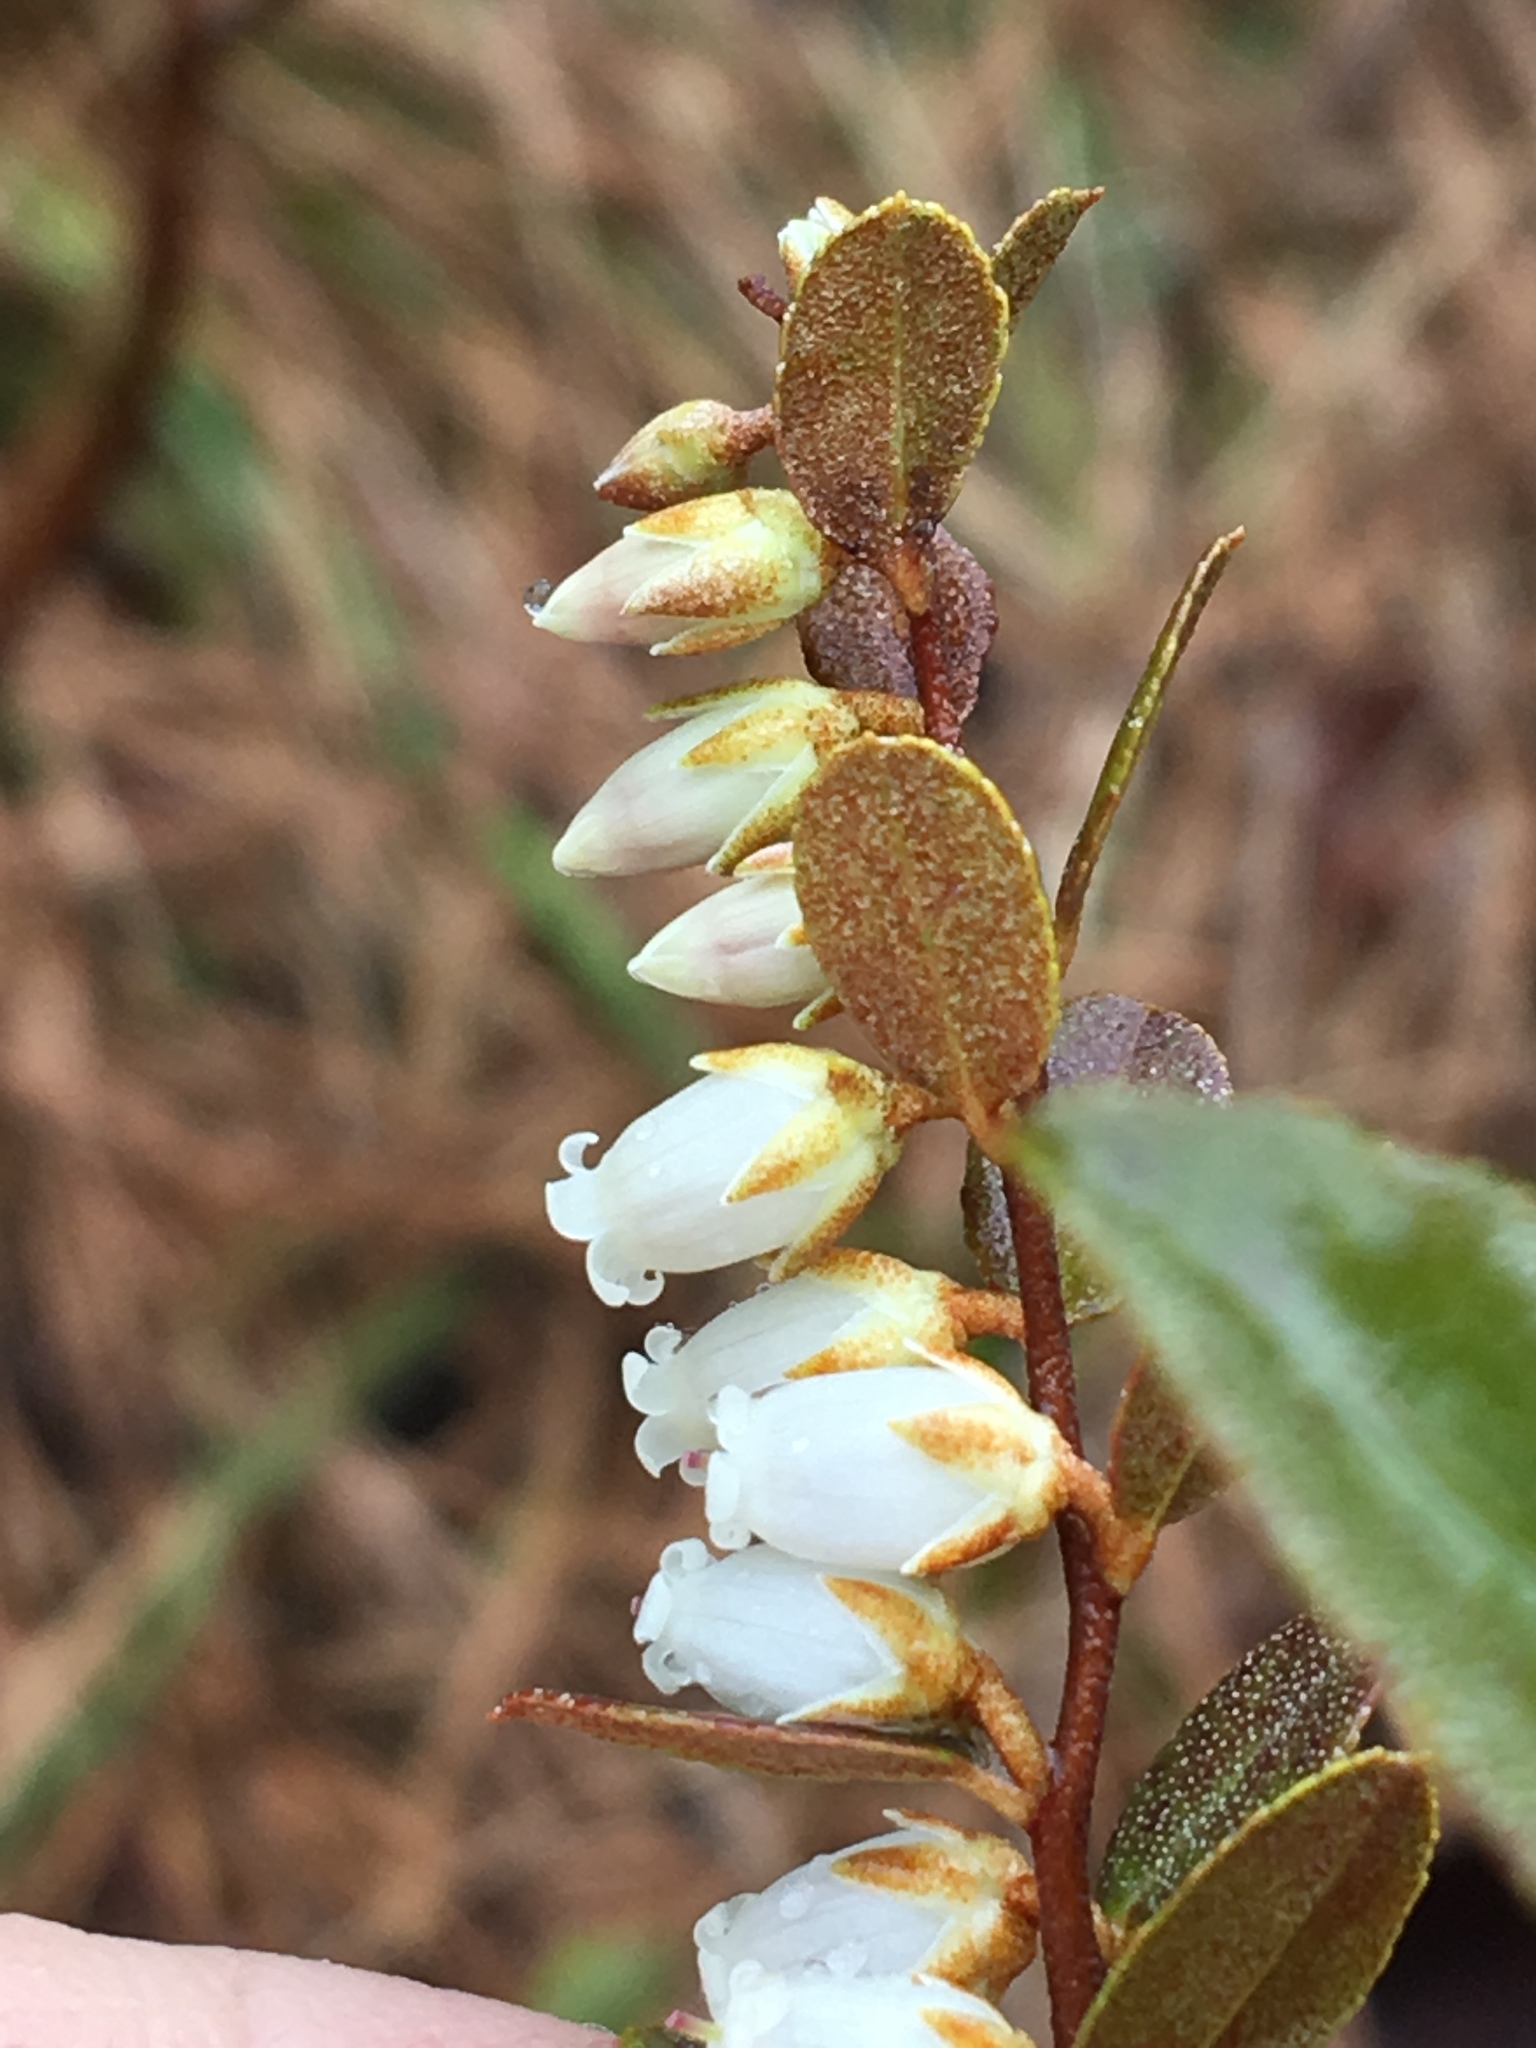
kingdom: Plantae
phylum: Tracheophyta
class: Magnoliopsida
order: Ericales
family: Ericaceae
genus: Chamaedaphne
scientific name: Chamaedaphne calyculata
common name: Leatherleaf
